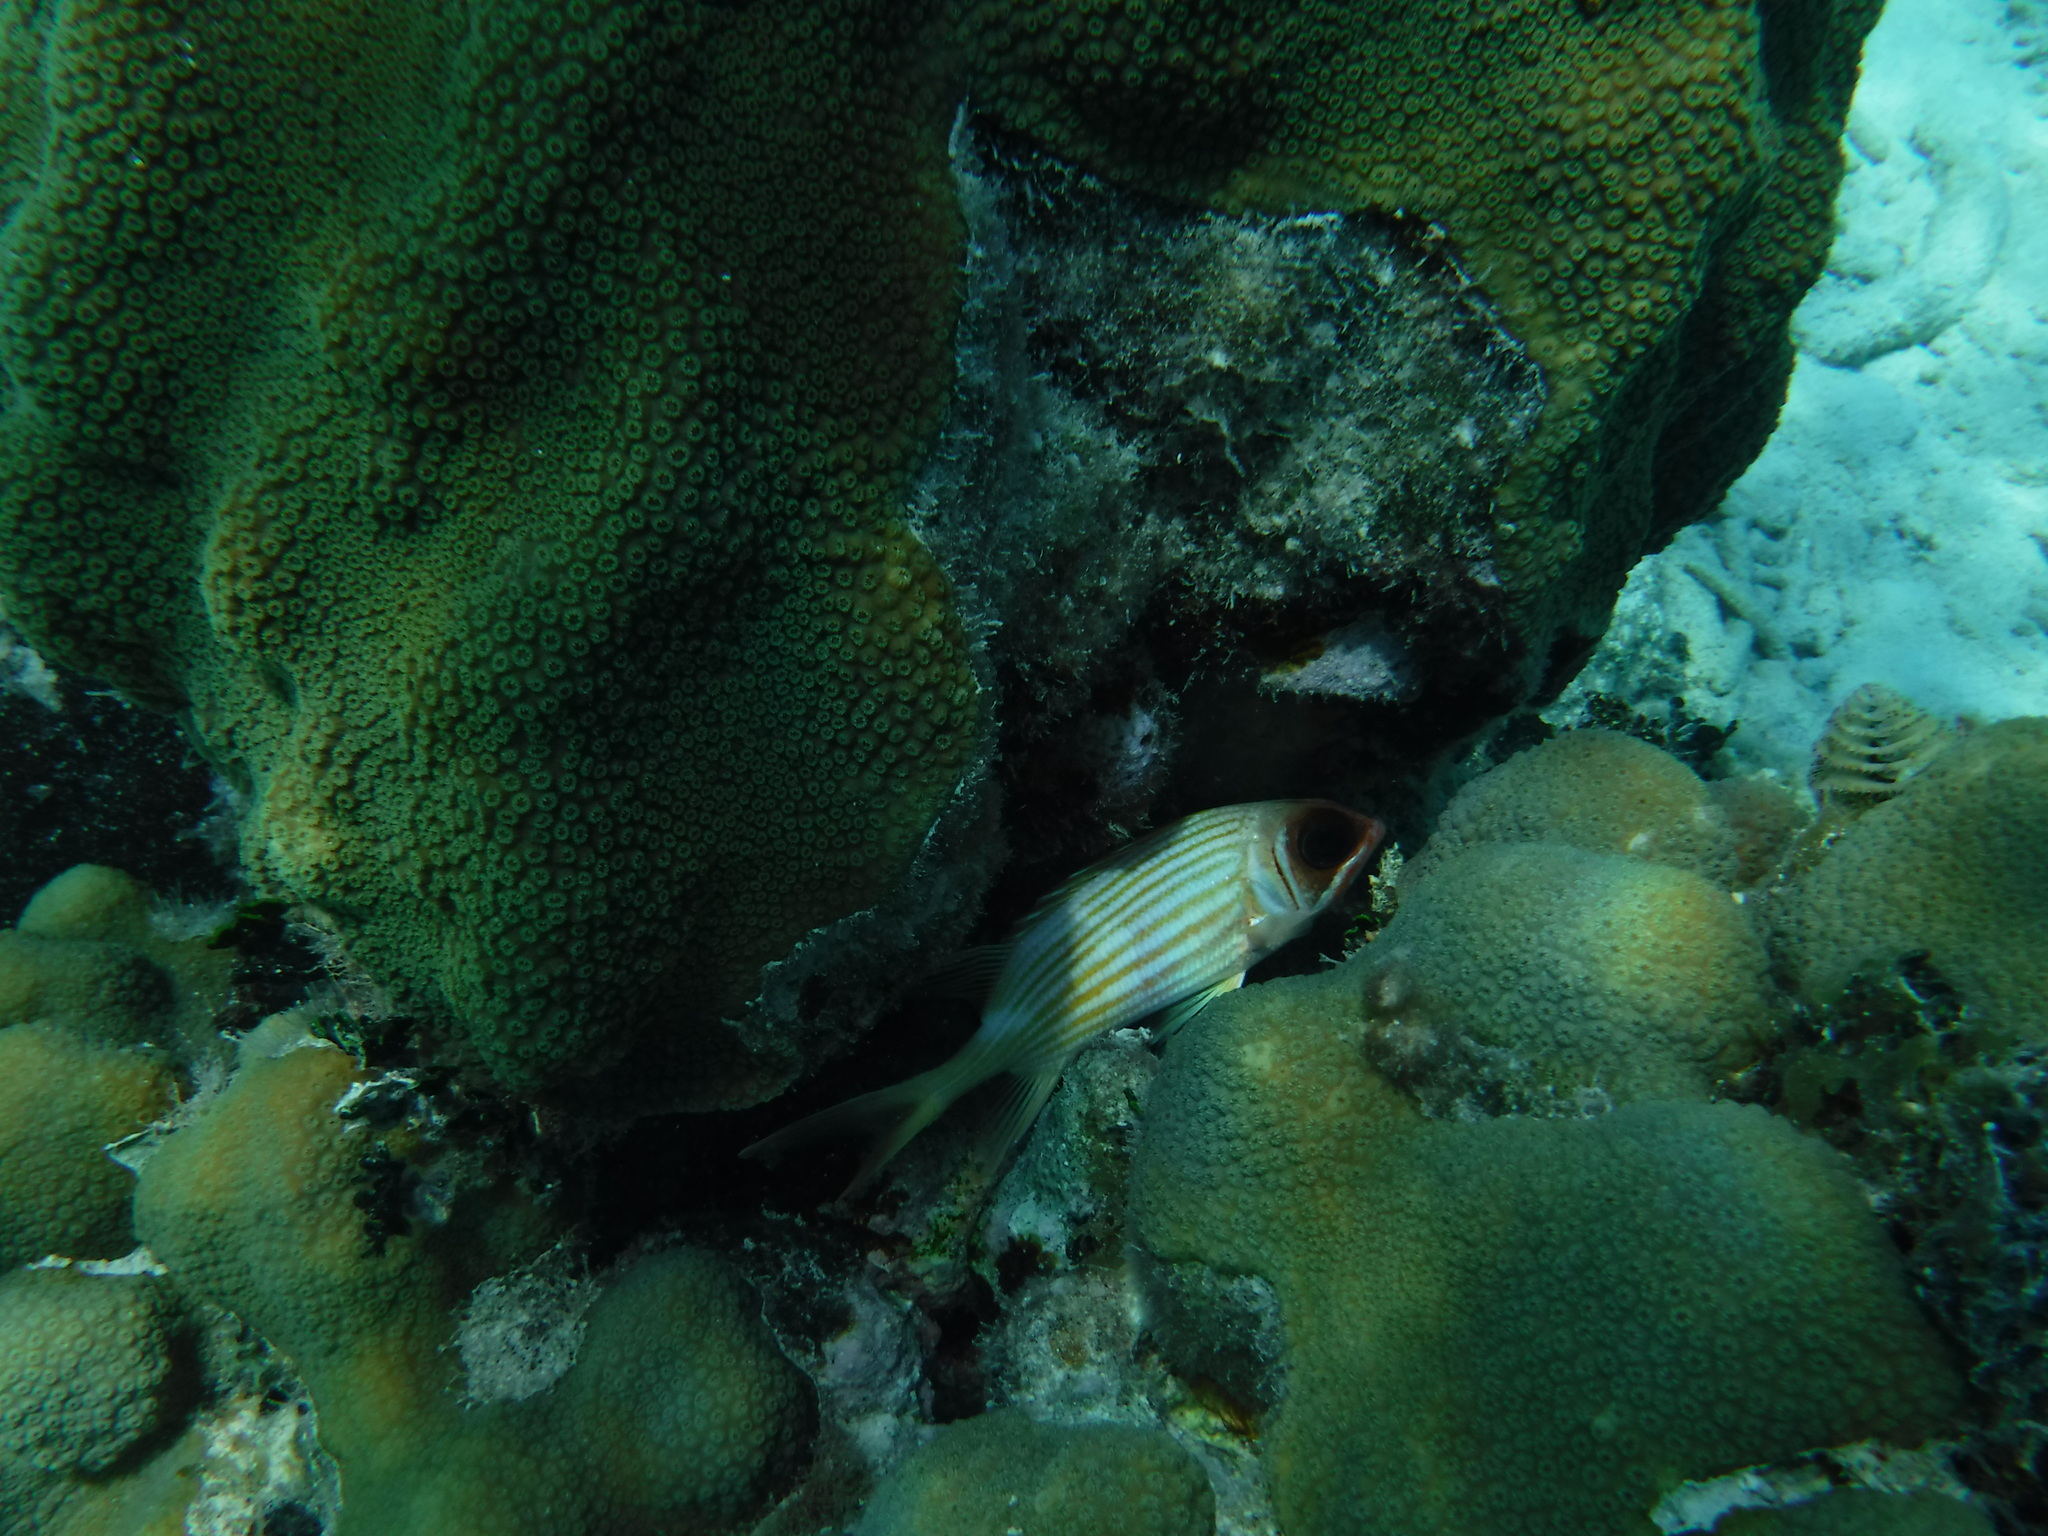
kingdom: Animalia
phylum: Chordata
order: Beryciformes
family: Holocentridae
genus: Holocentrus
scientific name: Holocentrus
